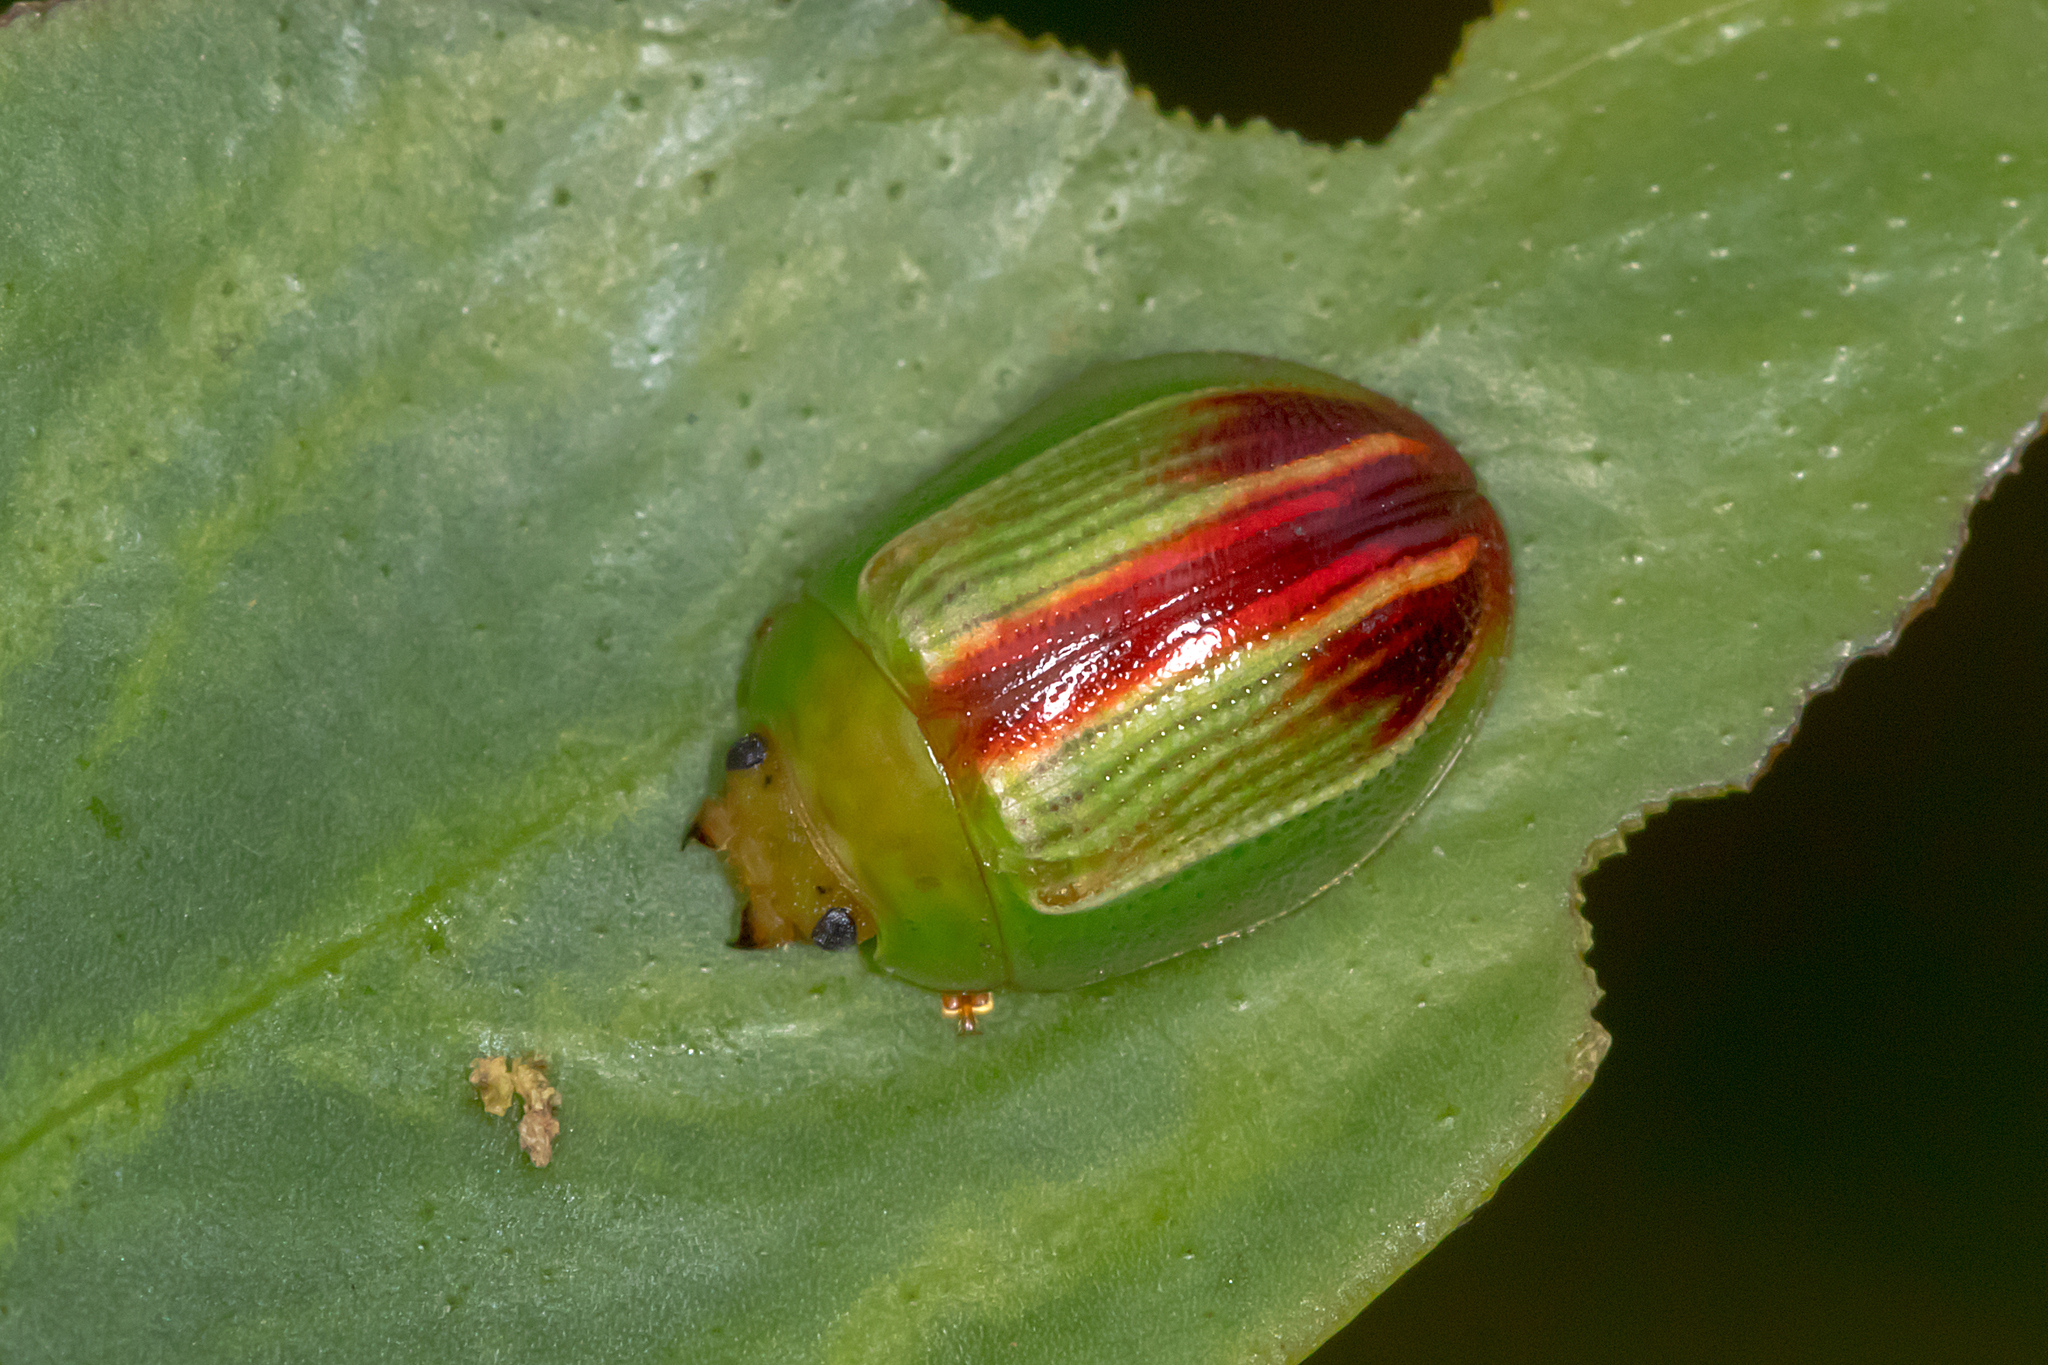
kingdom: Animalia
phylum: Arthropoda
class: Insecta
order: Coleoptera
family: Chrysomelidae
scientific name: Chrysomelidae
